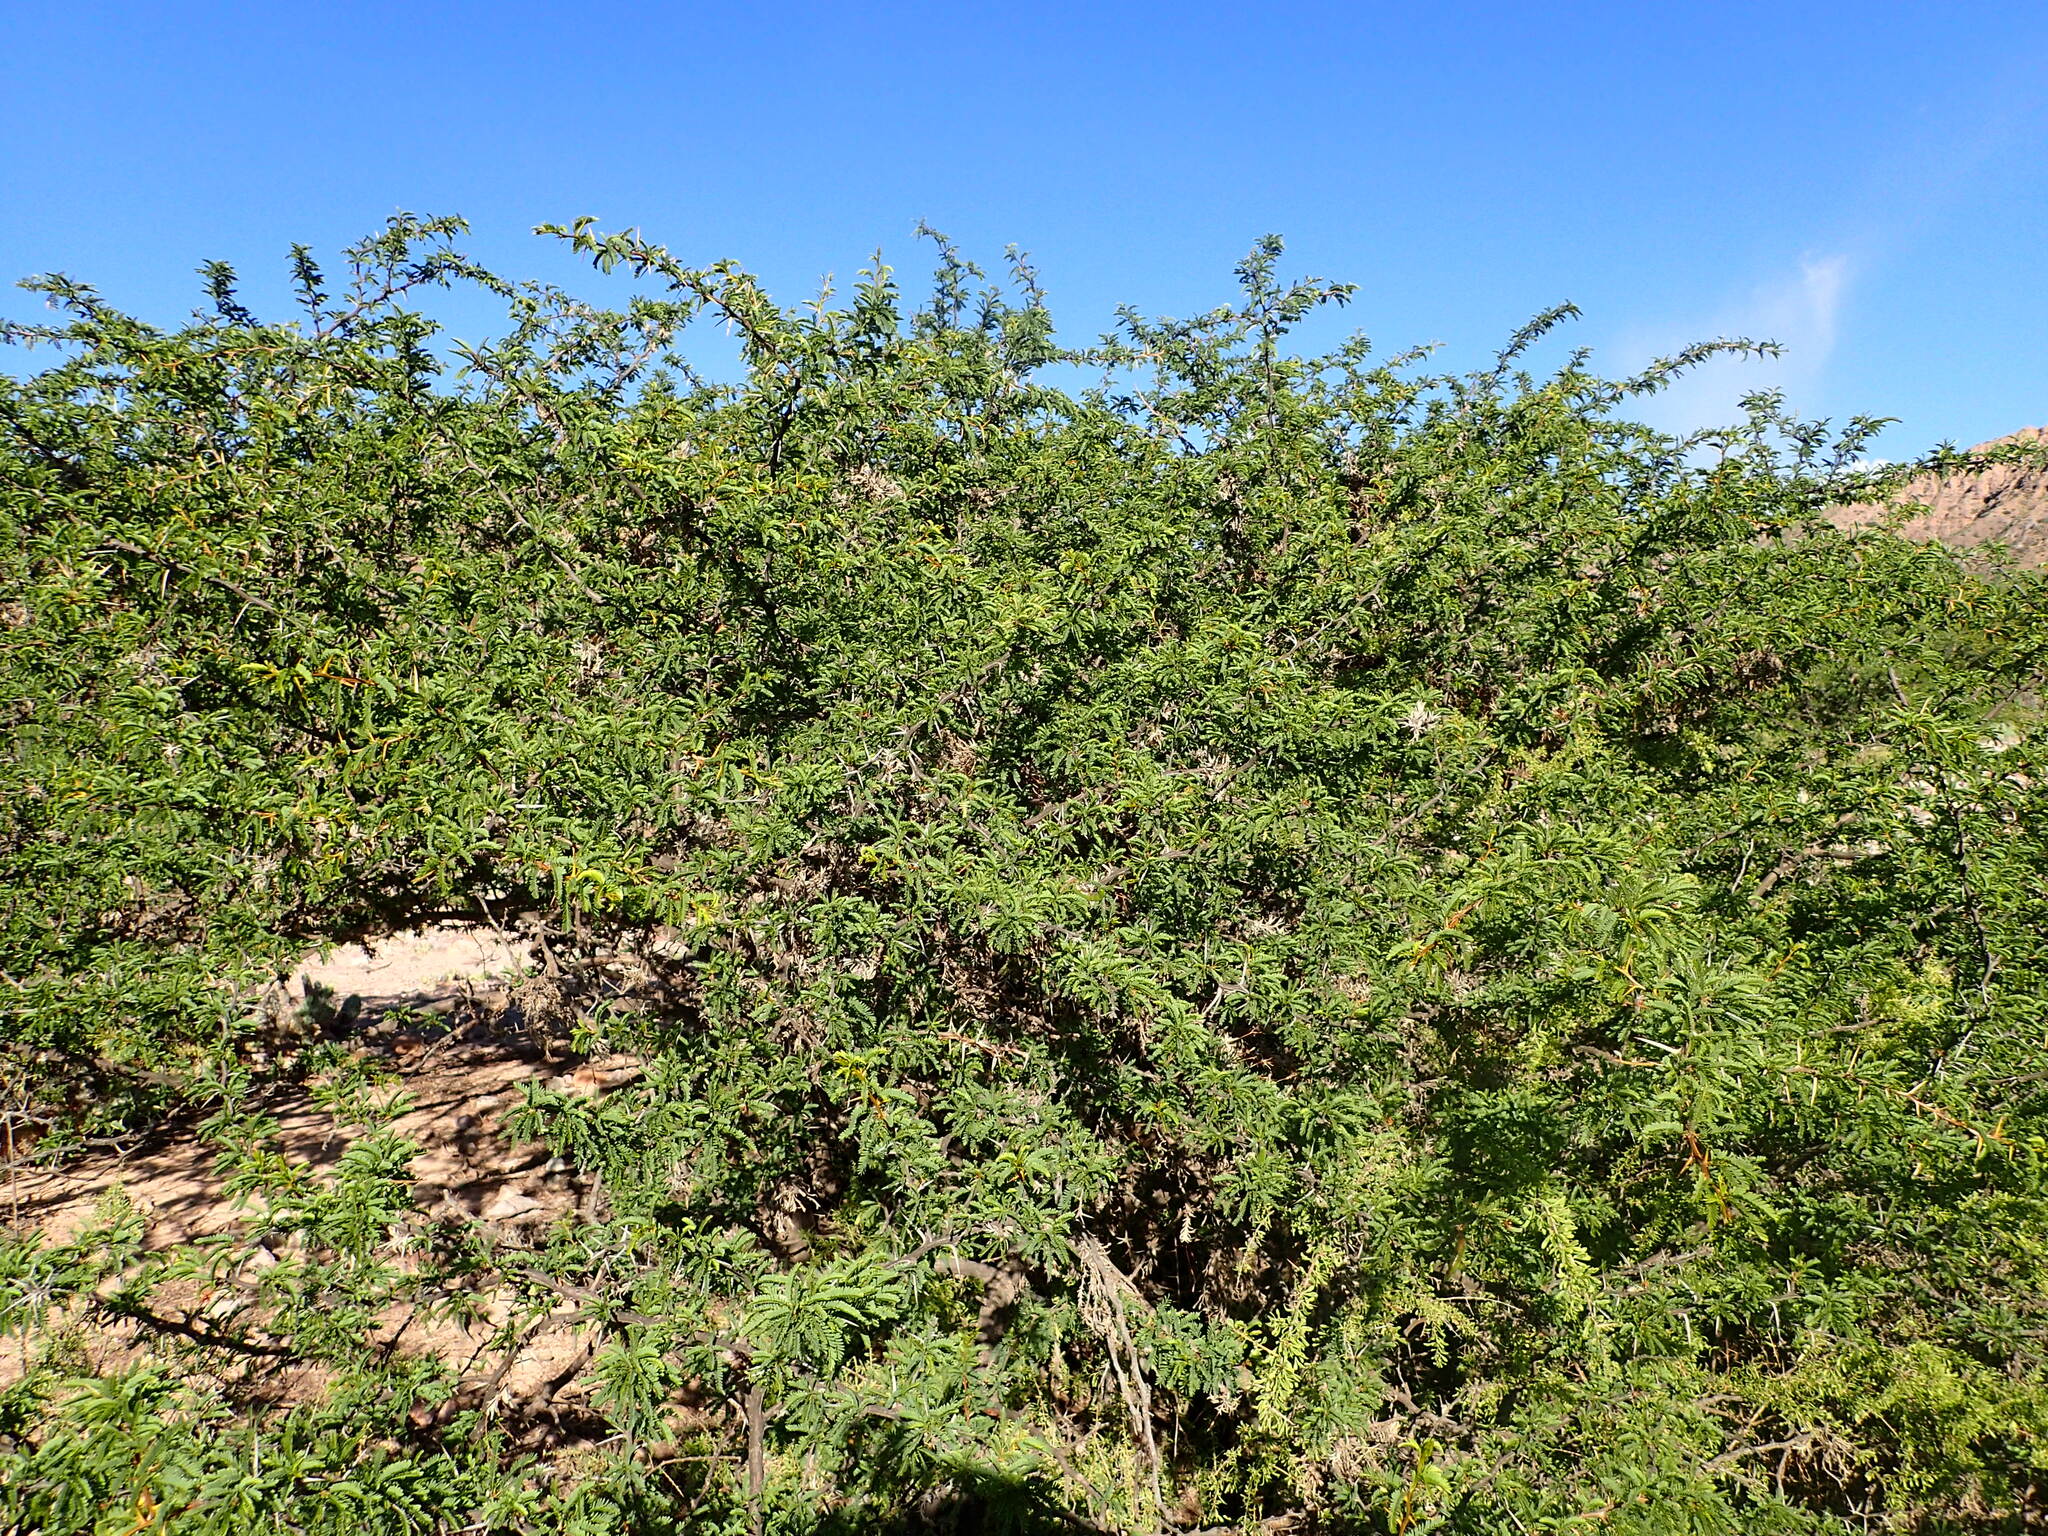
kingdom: Plantae
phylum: Tracheophyta
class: Magnoliopsida
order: Fabales
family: Fabaceae
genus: Prosopis
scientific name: Prosopis ferox
